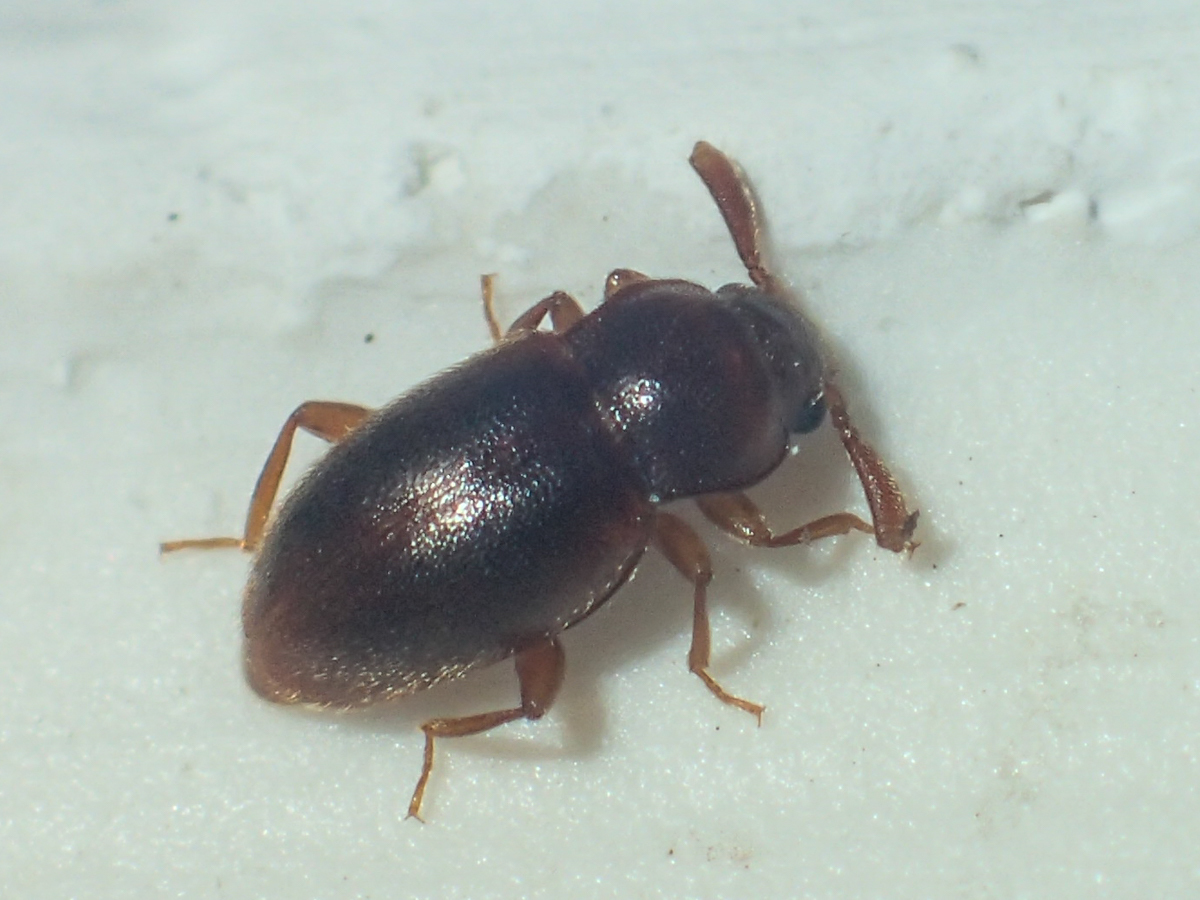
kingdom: Animalia
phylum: Arthropoda
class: Insecta
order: Coleoptera
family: Endomychidae
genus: Trochoideus
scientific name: Trochoideus desjardinsi
